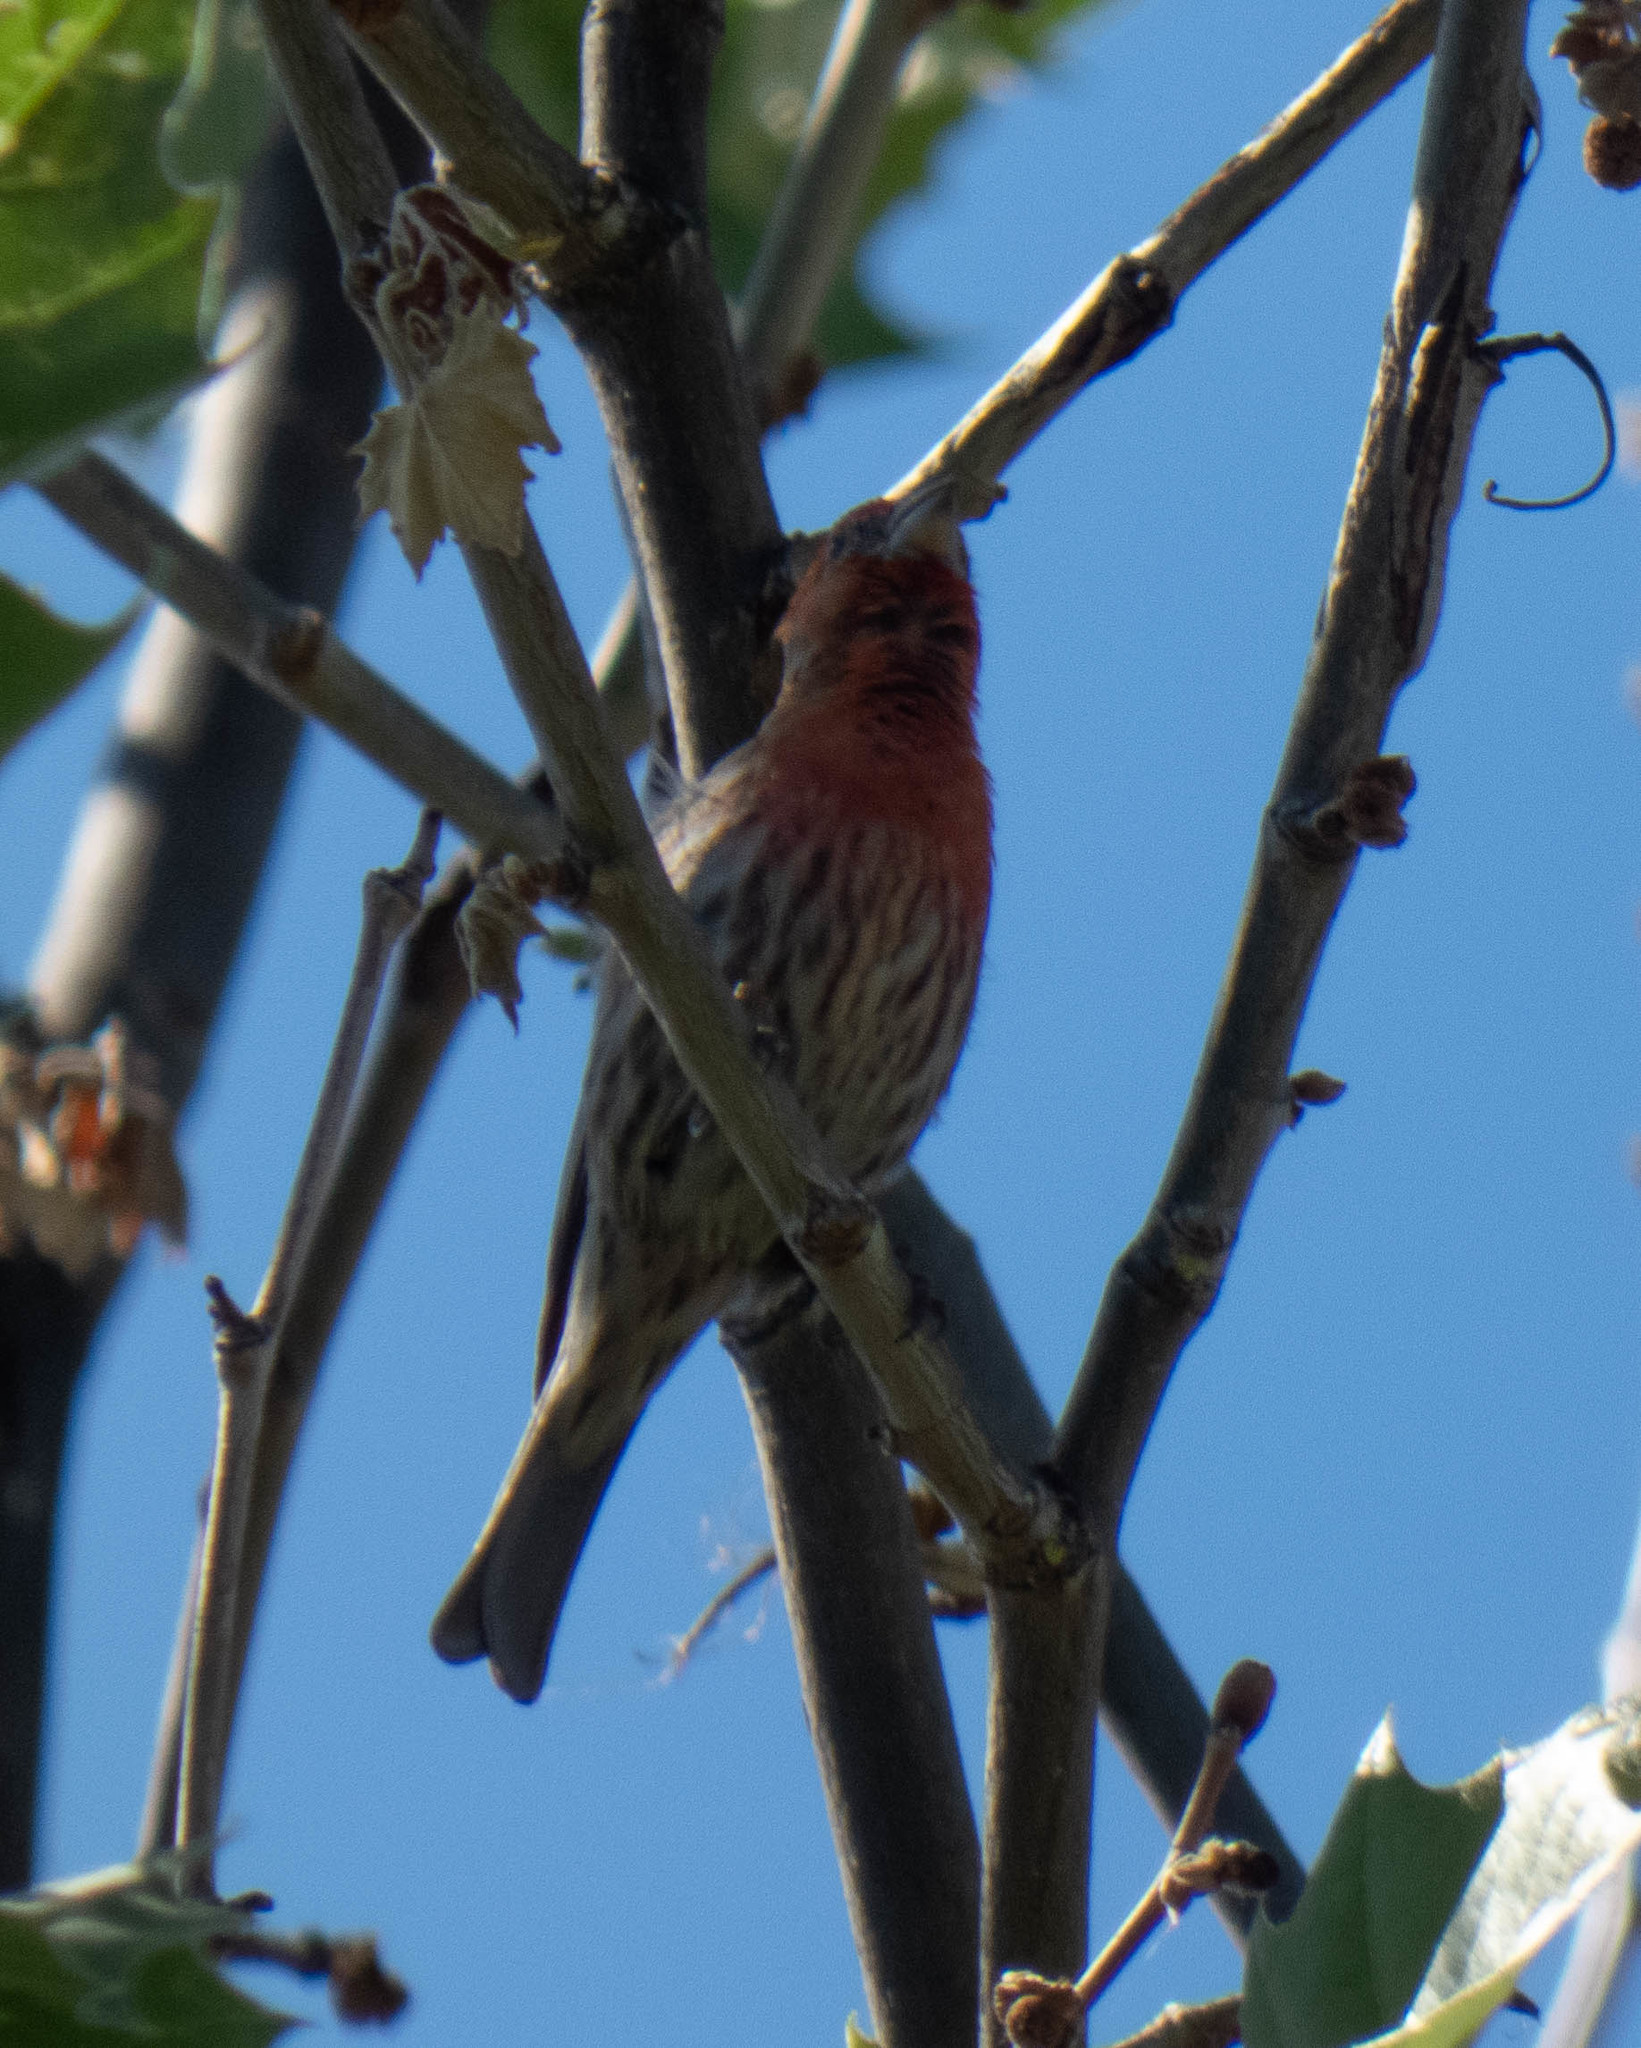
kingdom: Animalia
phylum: Chordata
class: Aves
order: Passeriformes
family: Fringillidae
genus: Haemorhous
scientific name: Haemorhous mexicanus
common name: House finch
